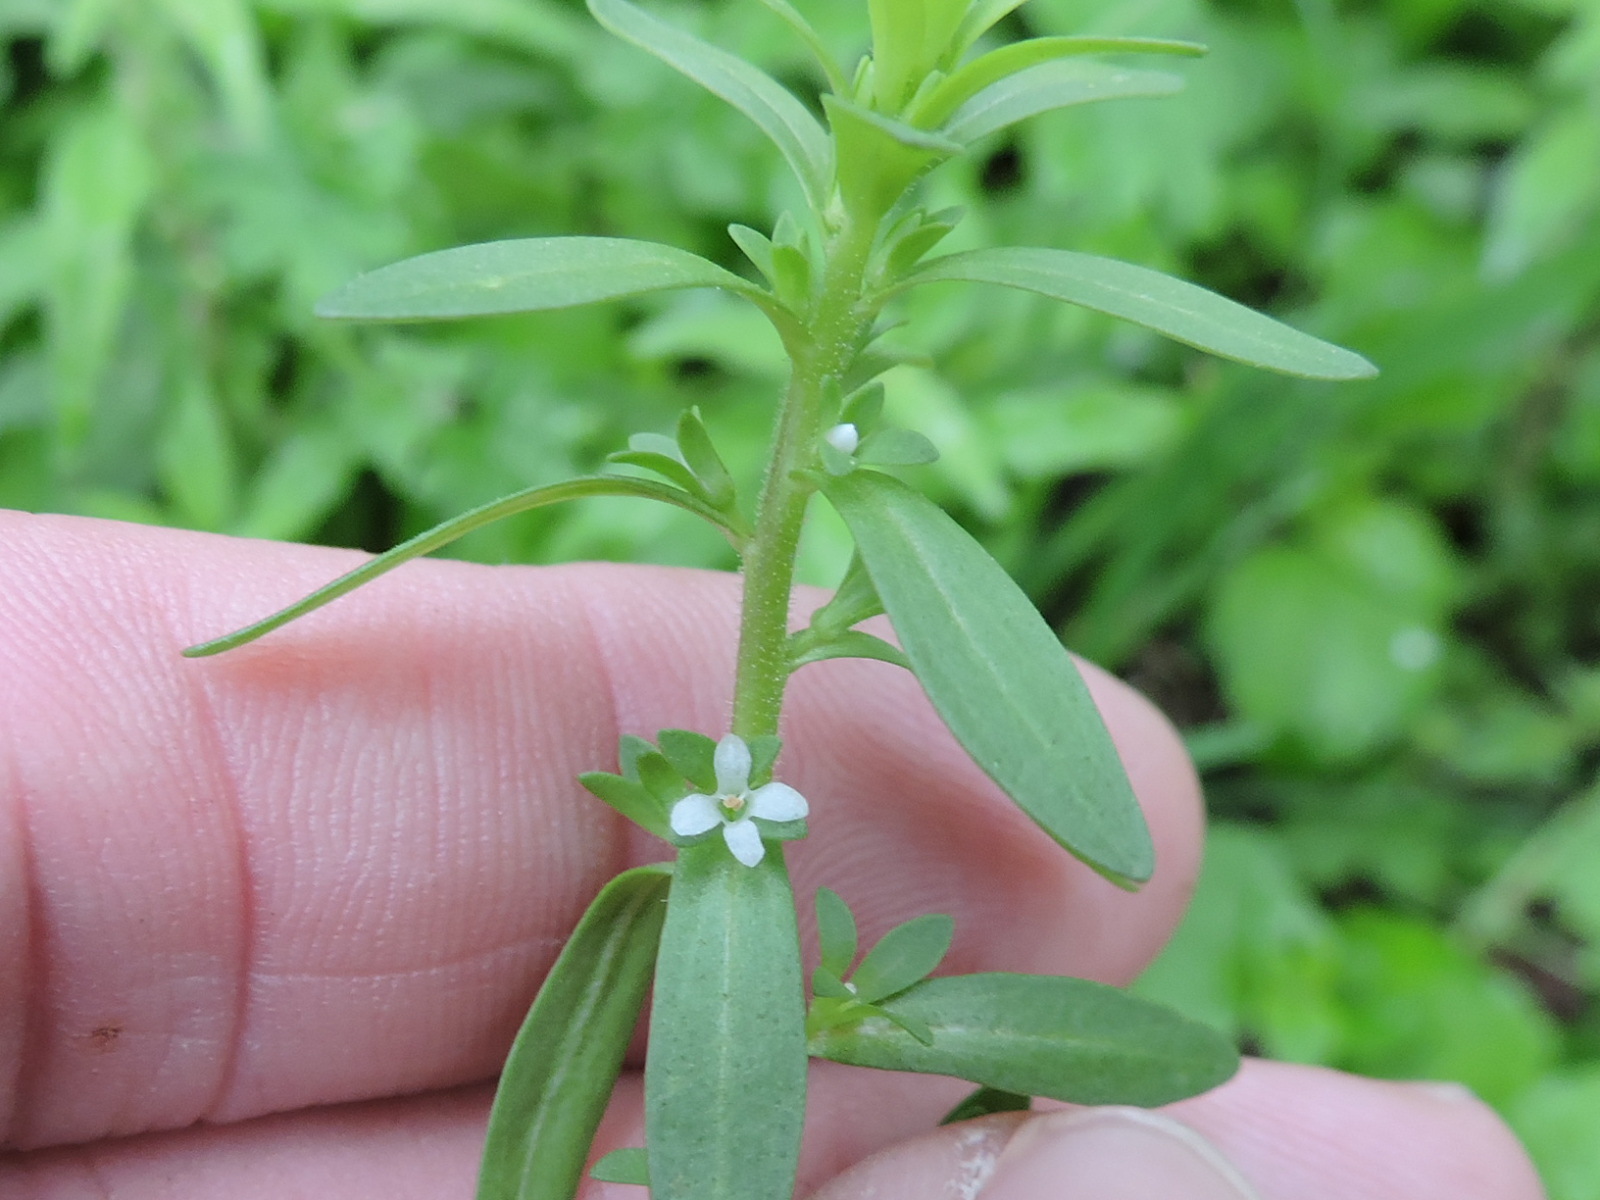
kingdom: Plantae
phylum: Tracheophyta
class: Magnoliopsida
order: Lamiales
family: Plantaginaceae
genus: Veronica
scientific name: Veronica peregrina
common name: Neckweed
